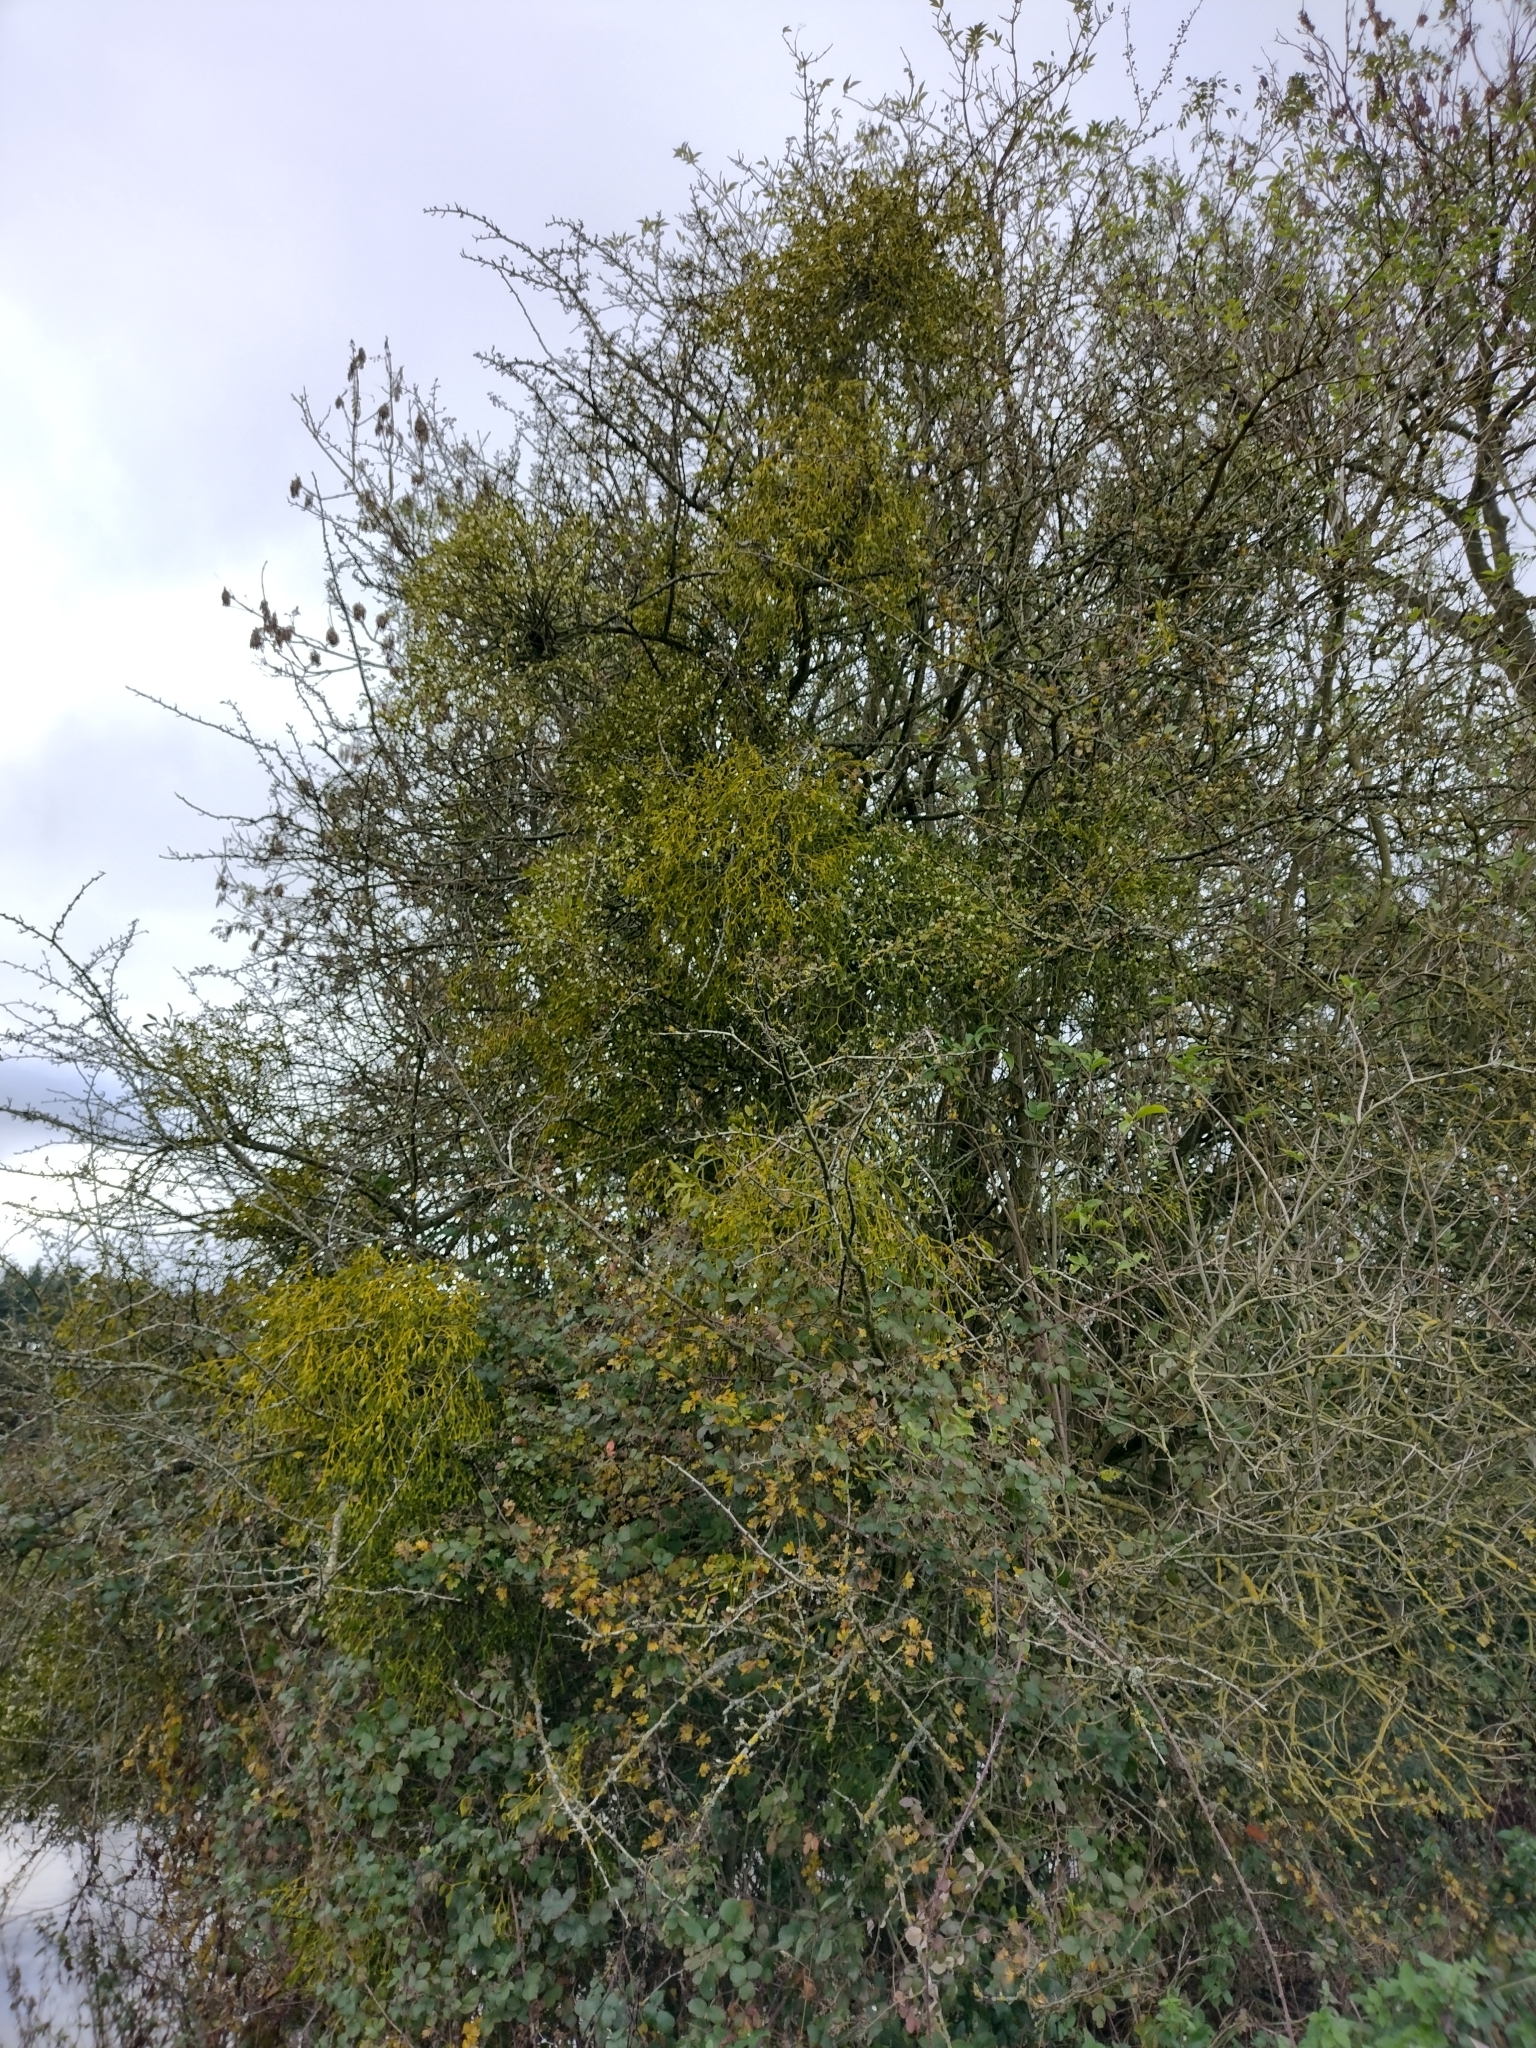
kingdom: Plantae
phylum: Tracheophyta
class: Magnoliopsida
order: Santalales
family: Viscaceae
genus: Viscum
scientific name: Viscum album
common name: Mistletoe
